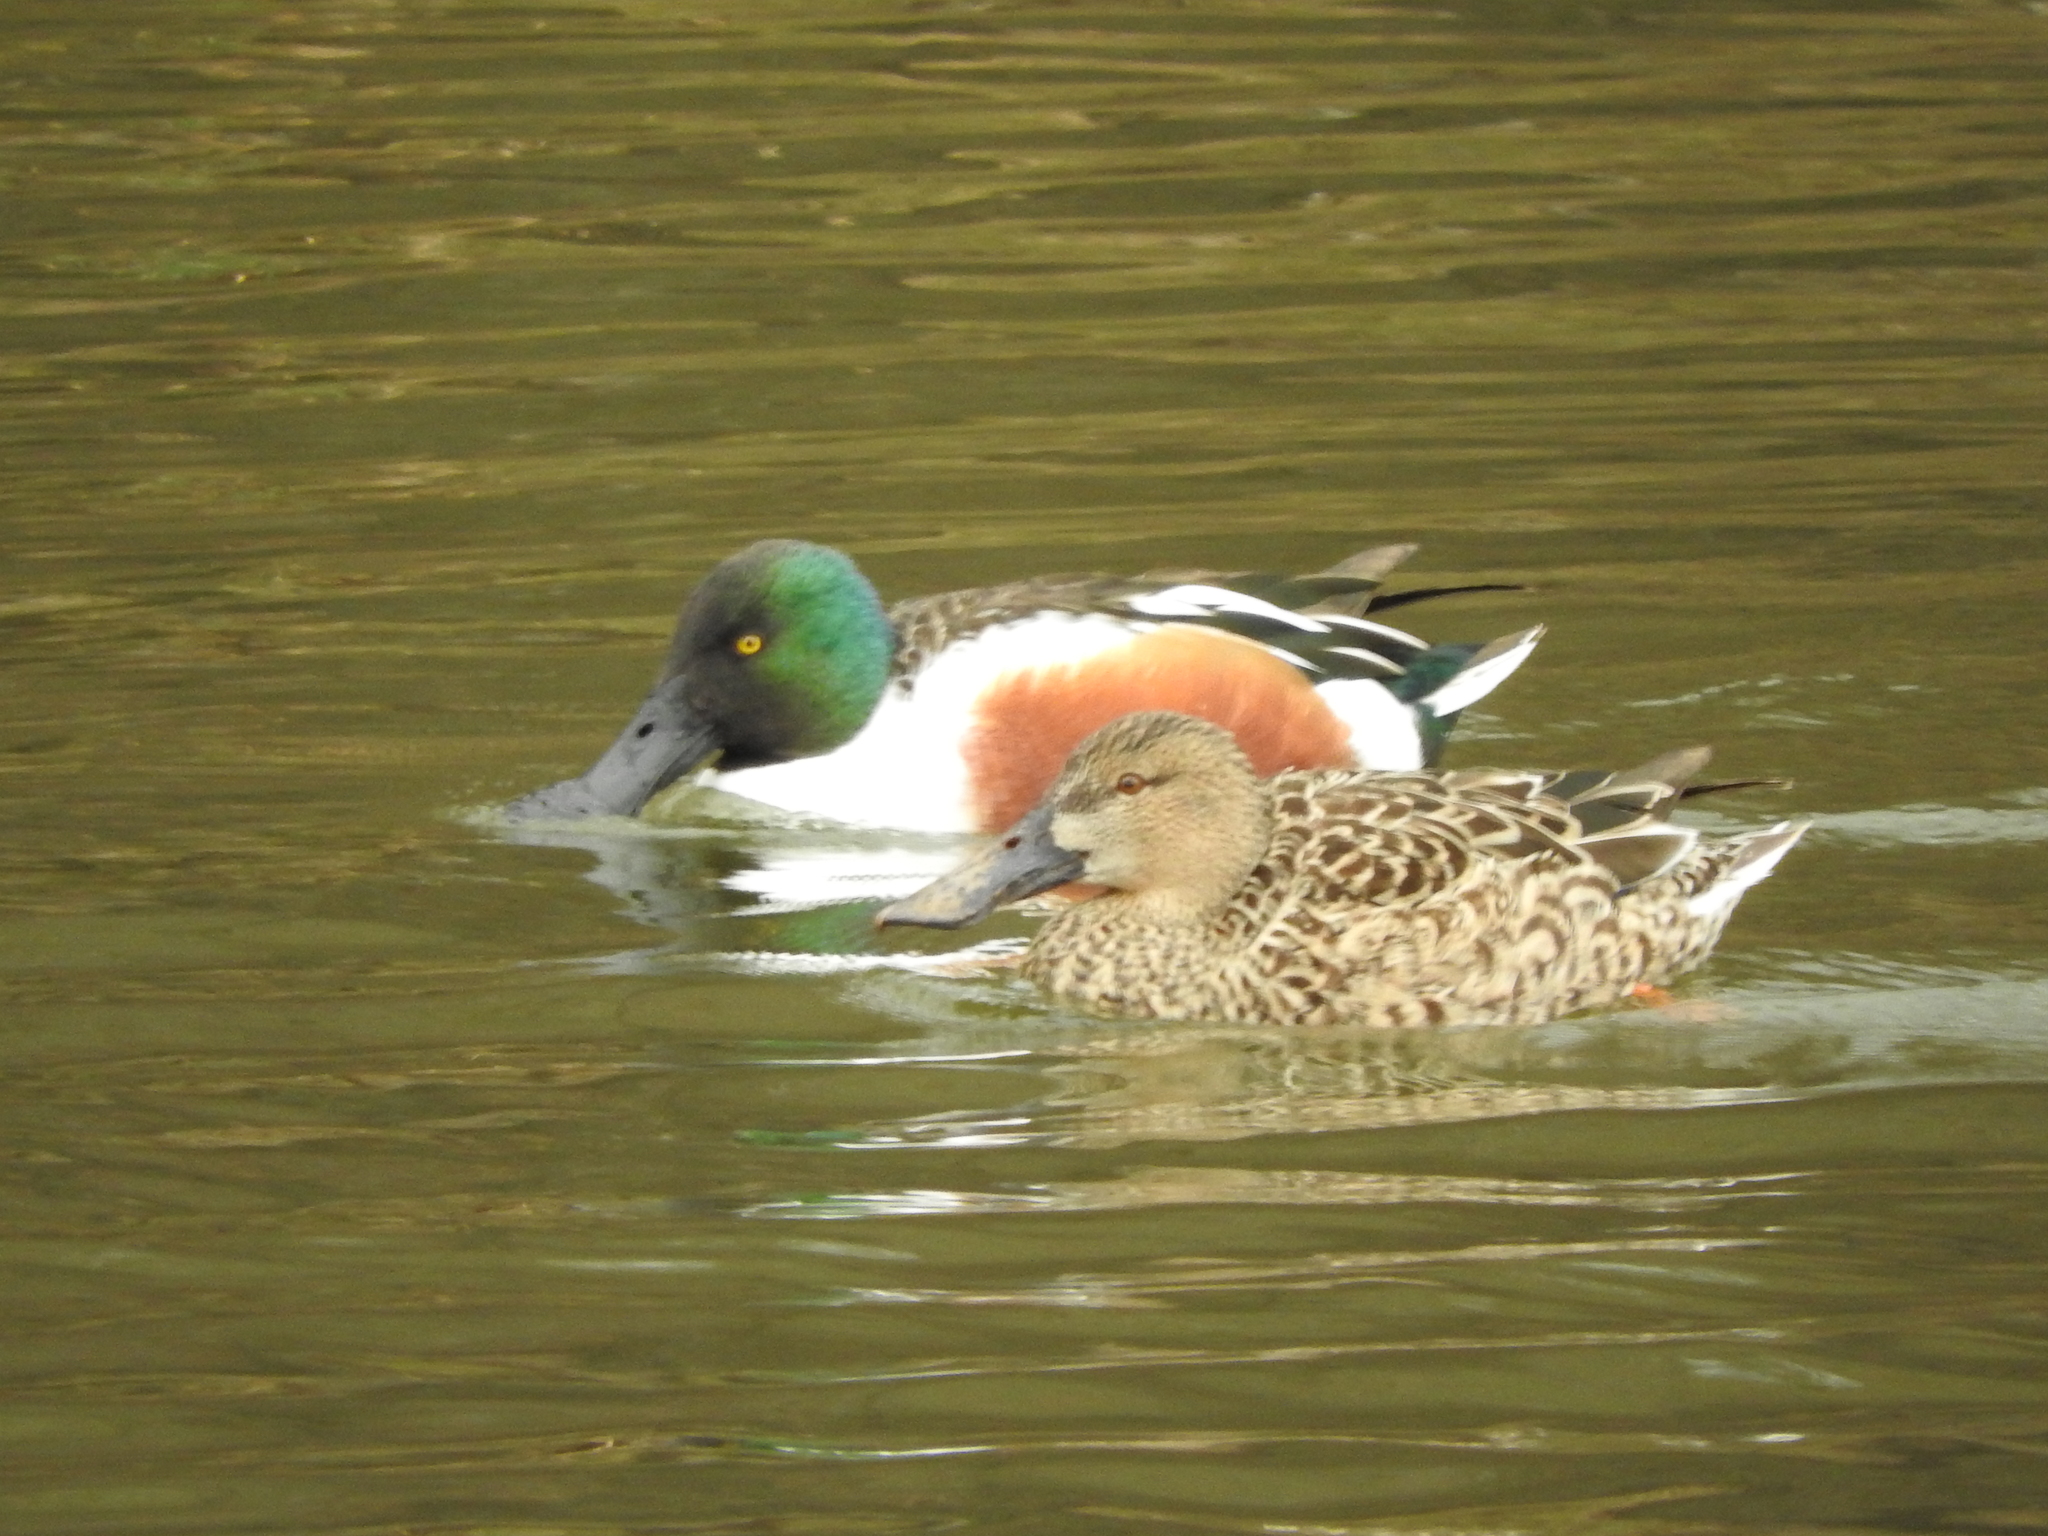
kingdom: Animalia
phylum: Chordata
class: Aves
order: Anseriformes
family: Anatidae
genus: Spatula
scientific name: Spatula clypeata
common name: Northern shoveler
